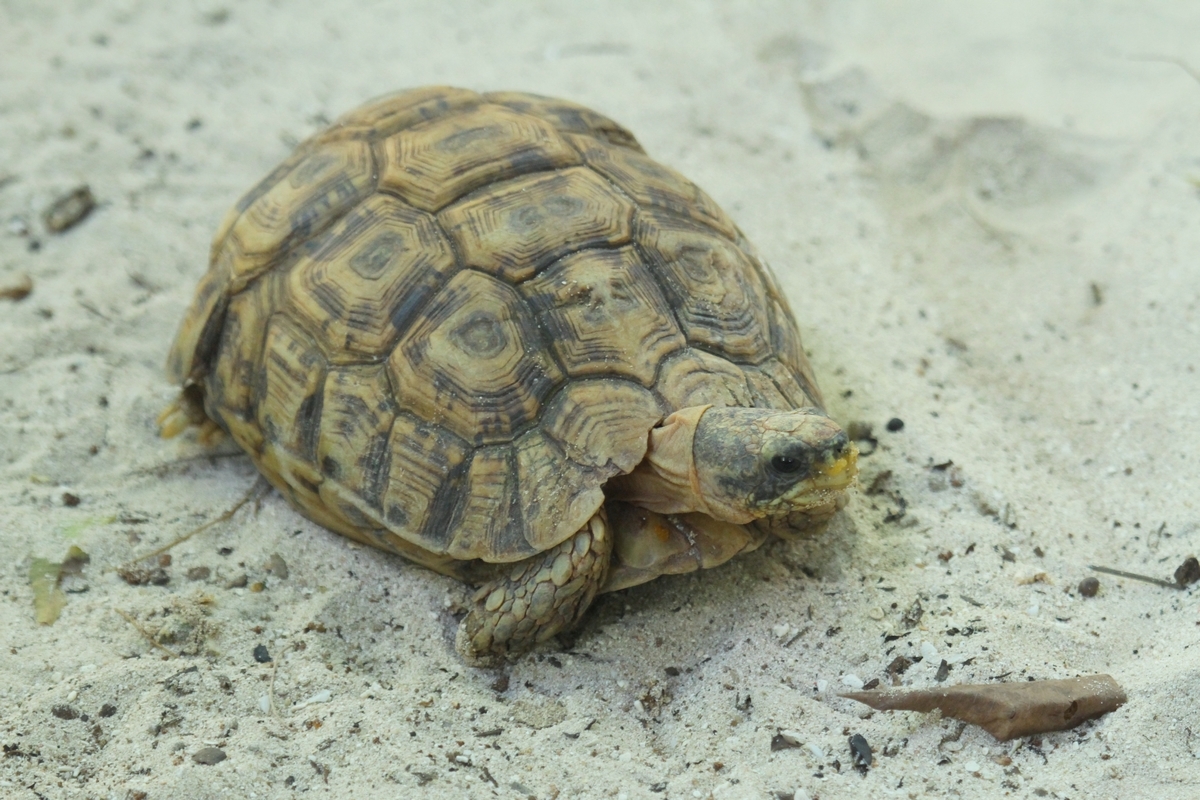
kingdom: Animalia
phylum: Chordata
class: Testudines
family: Testudinidae
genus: Kinixys
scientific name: Kinixys zombensis
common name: Southeastern hinge-back tortoise
